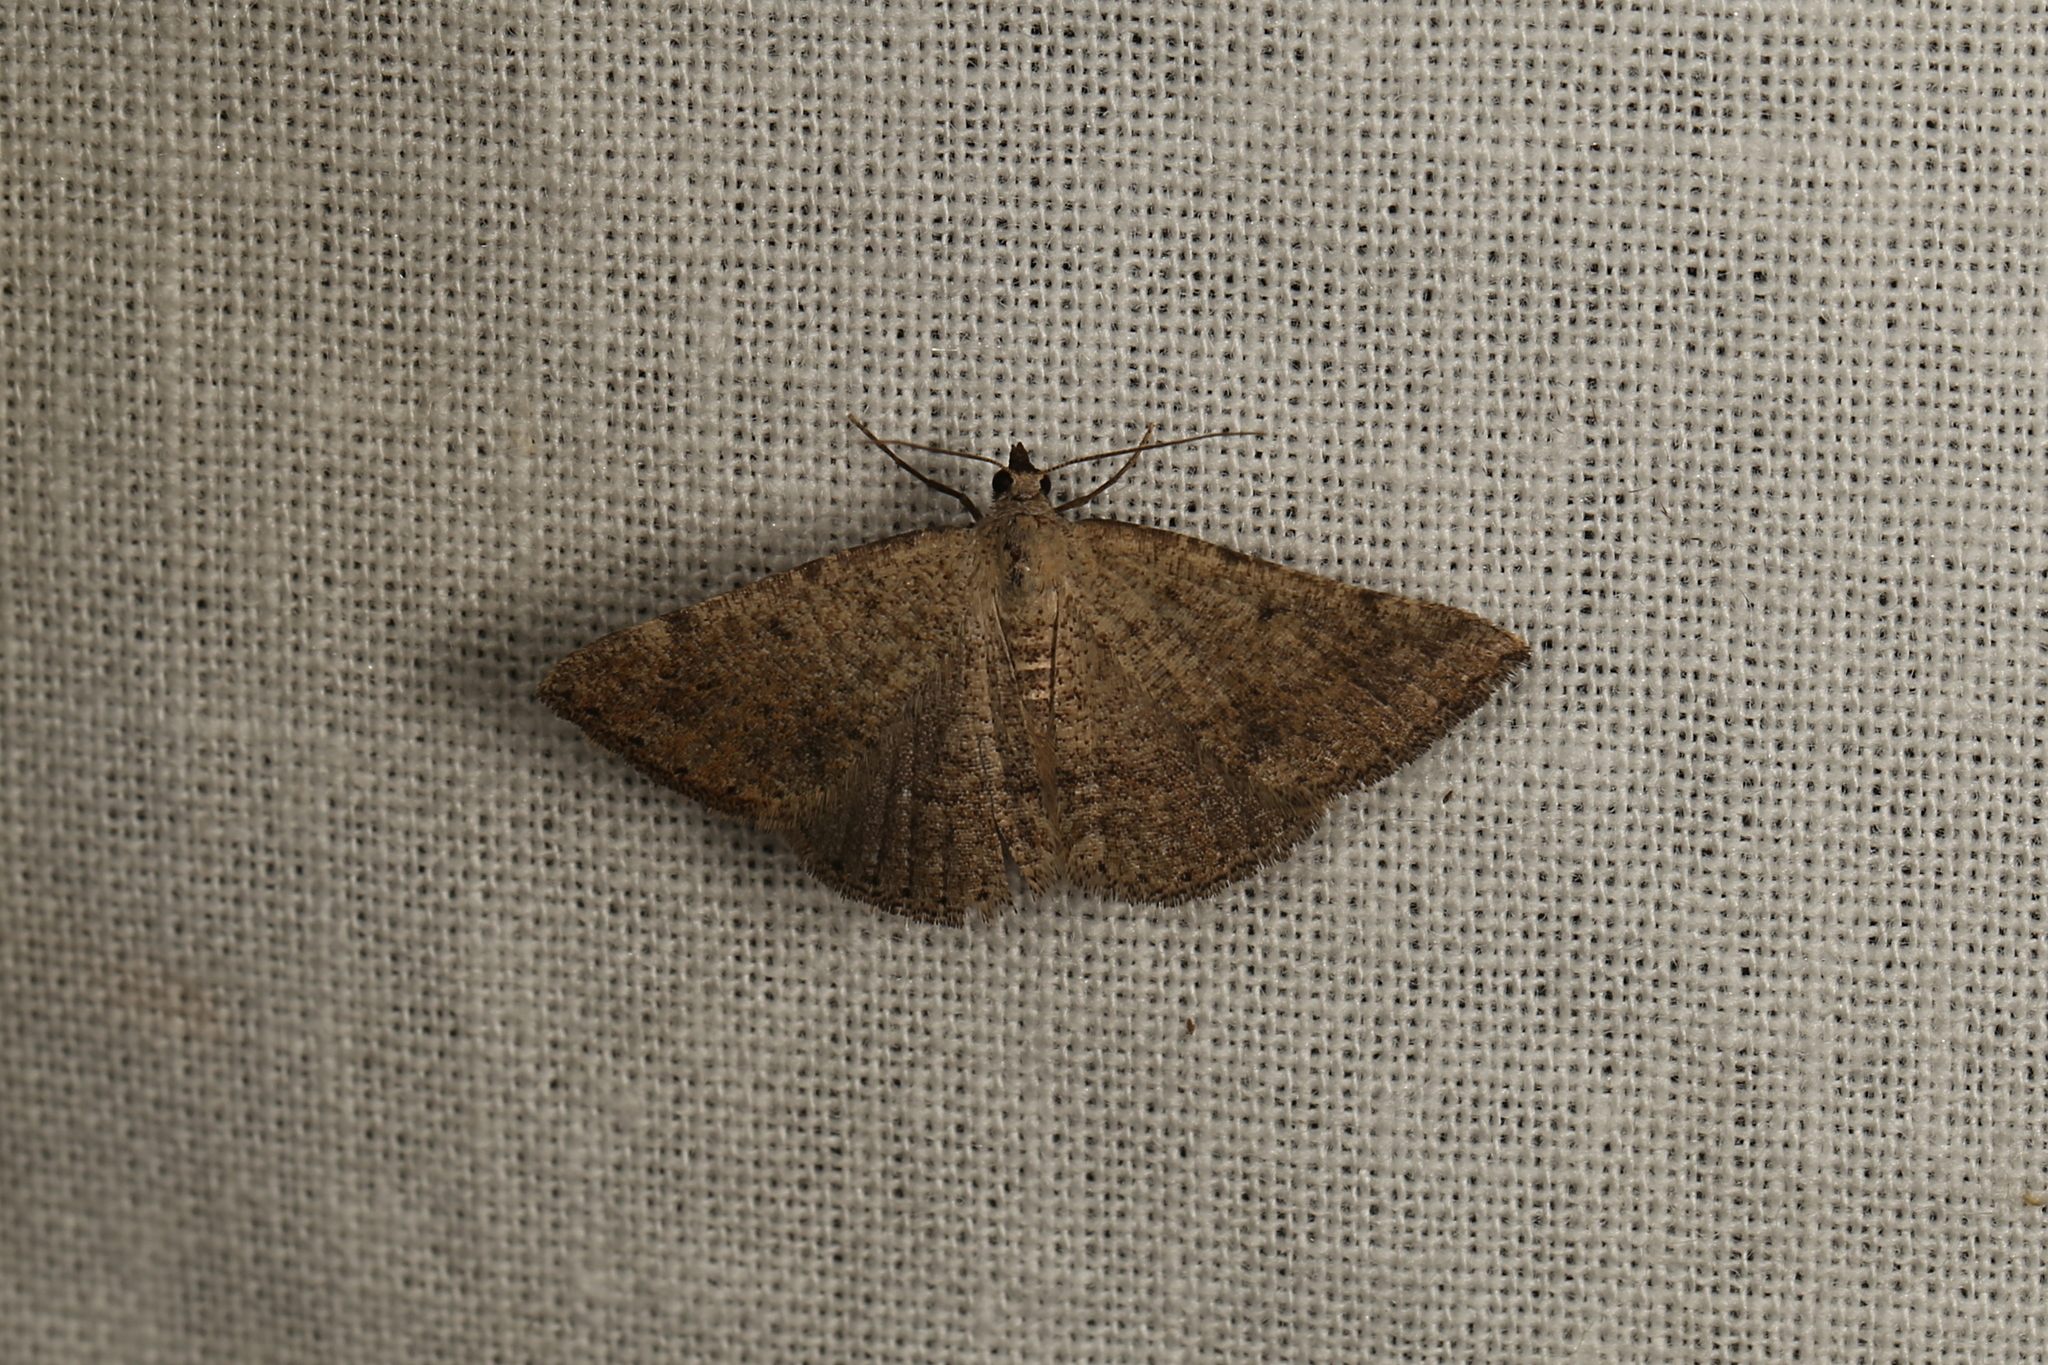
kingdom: Animalia
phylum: Arthropoda
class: Insecta
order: Lepidoptera
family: Geometridae
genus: Taxeotis
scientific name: Taxeotis mimela
